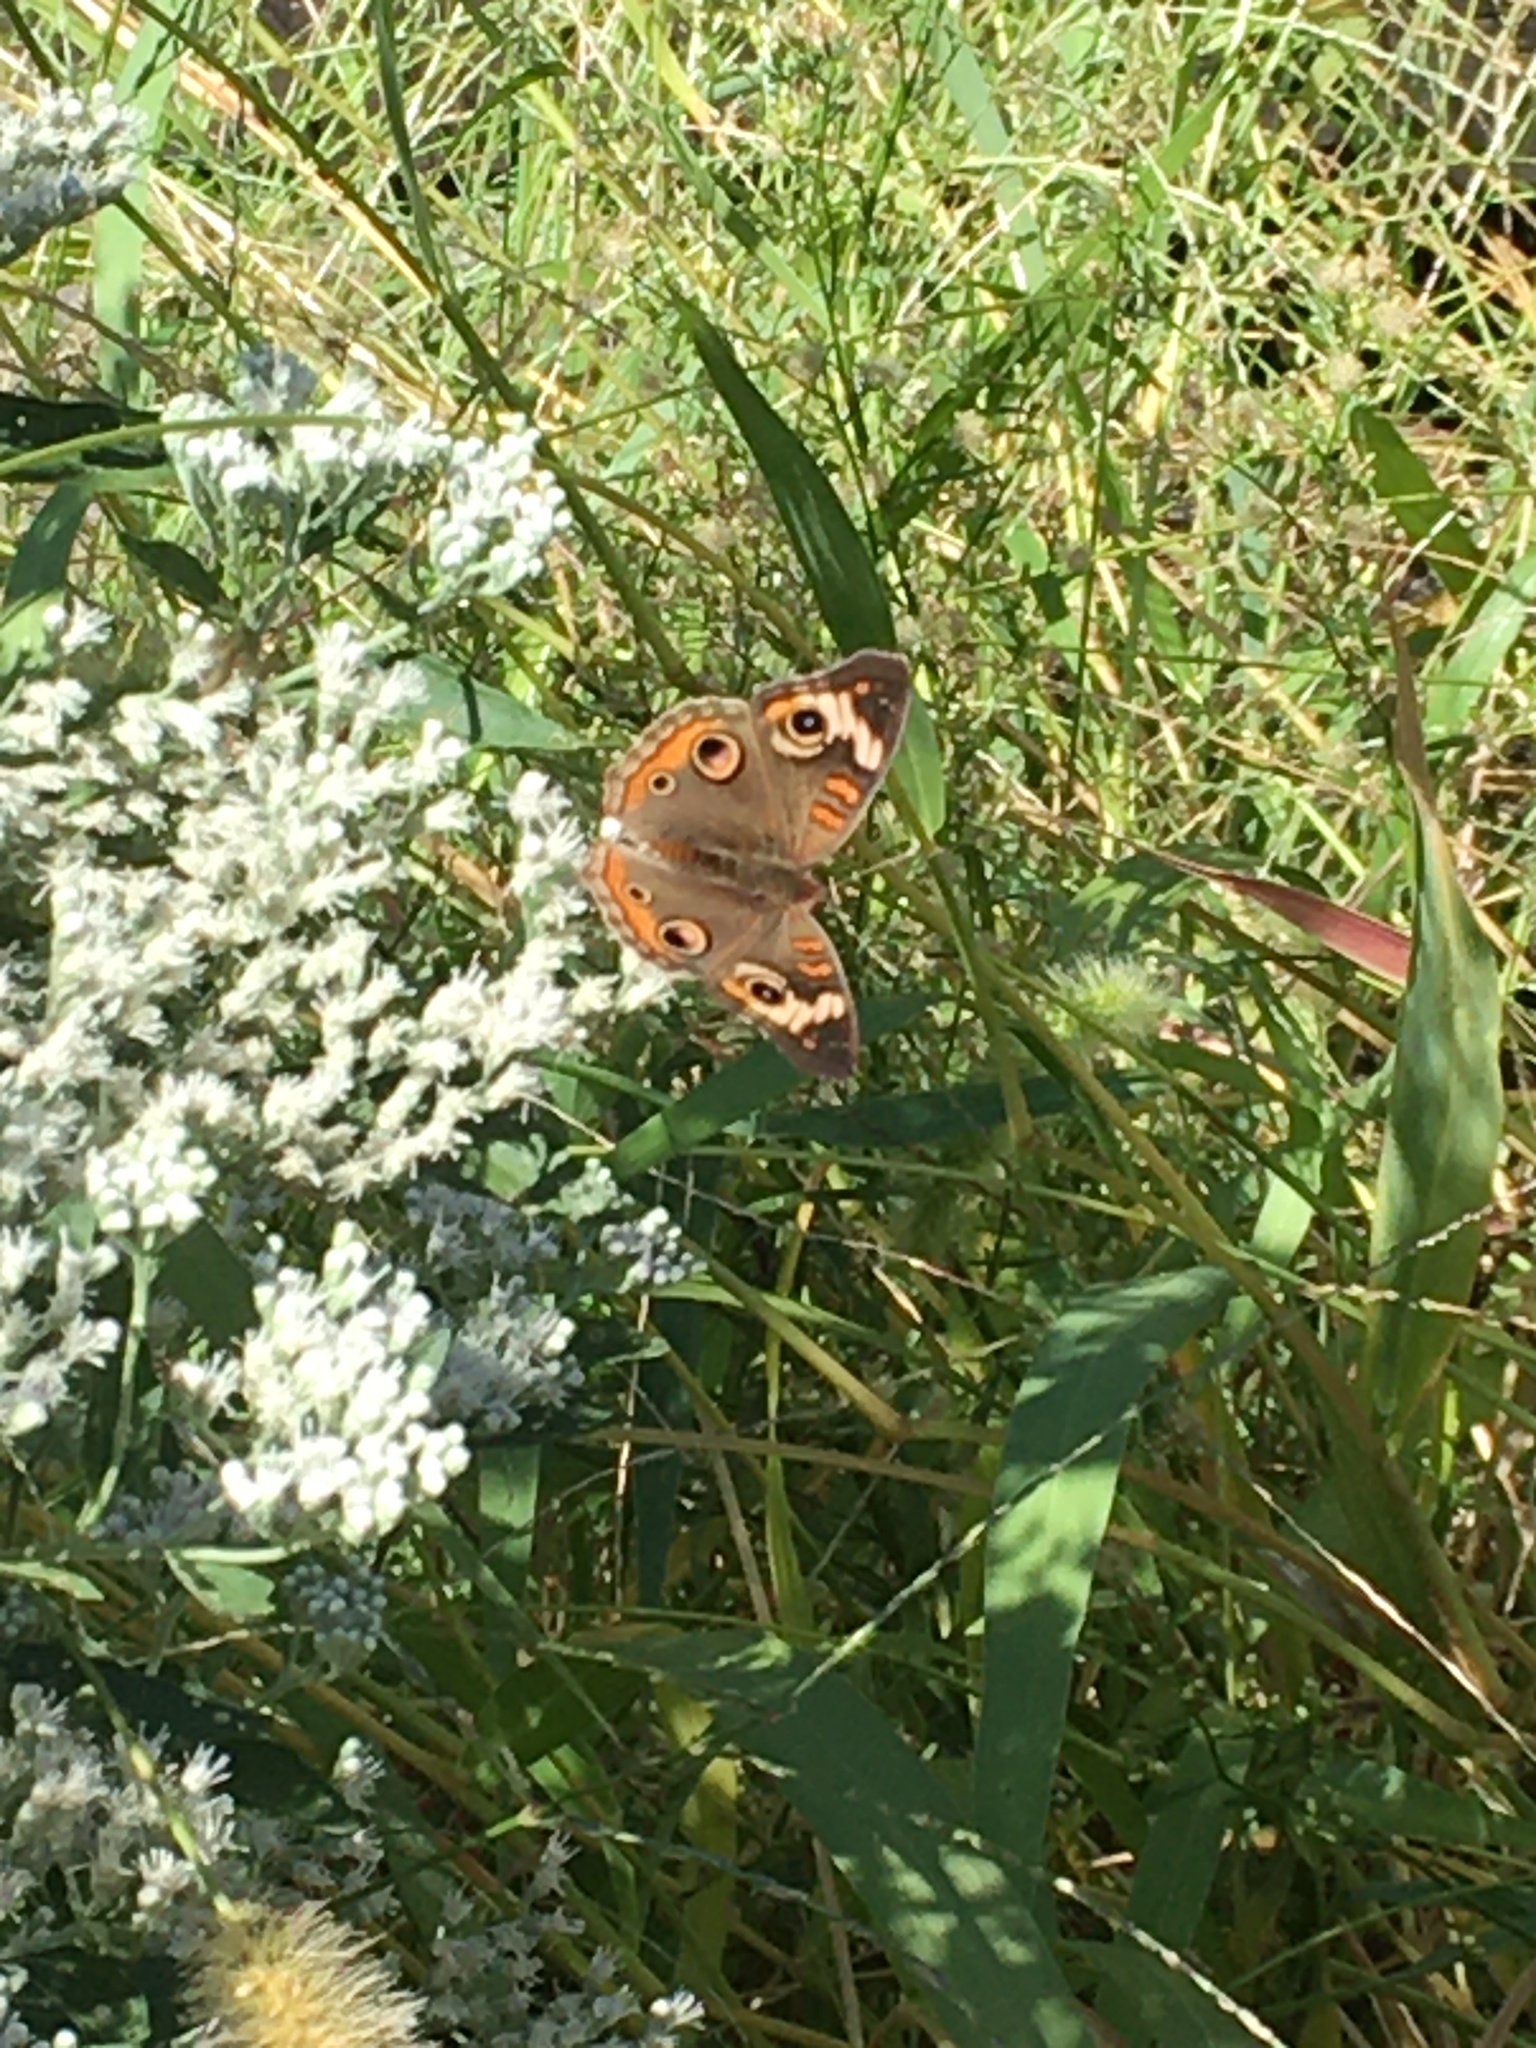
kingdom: Animalia
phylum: Arthropoda
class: Insecta
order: Lepidoptera
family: Nymphalidae
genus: Junonia
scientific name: Junonia coenia
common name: Common buckeye
